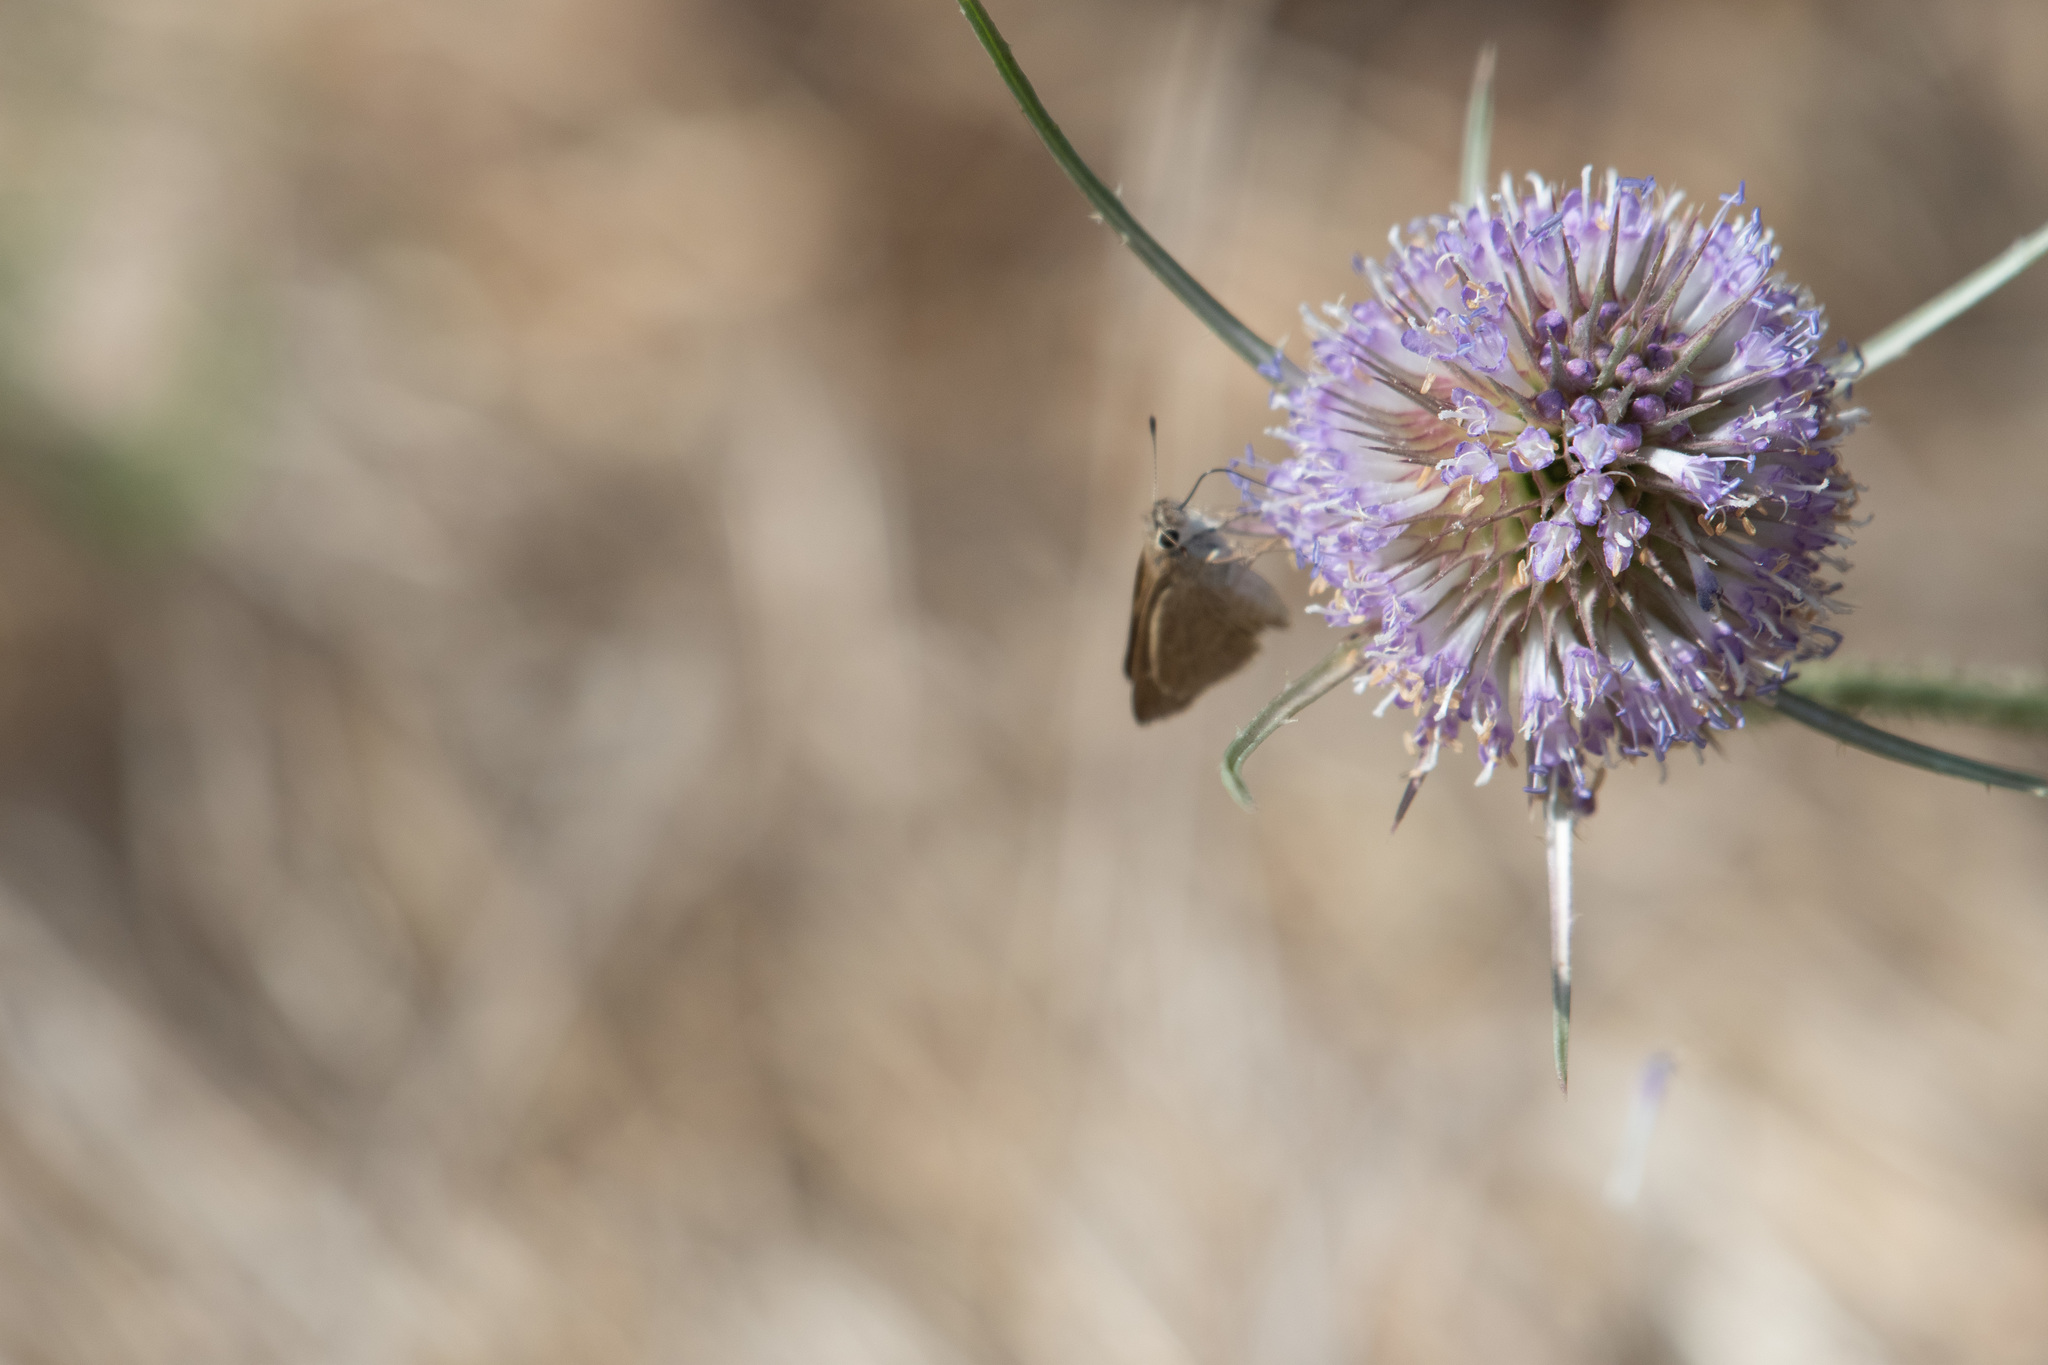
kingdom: Plantae
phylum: Tracheophyta
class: Magnoliopsida
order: Dipsacales
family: Caprifoliaceae
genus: Dipsacus
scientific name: Dipsacus fullonum
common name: Teasel
